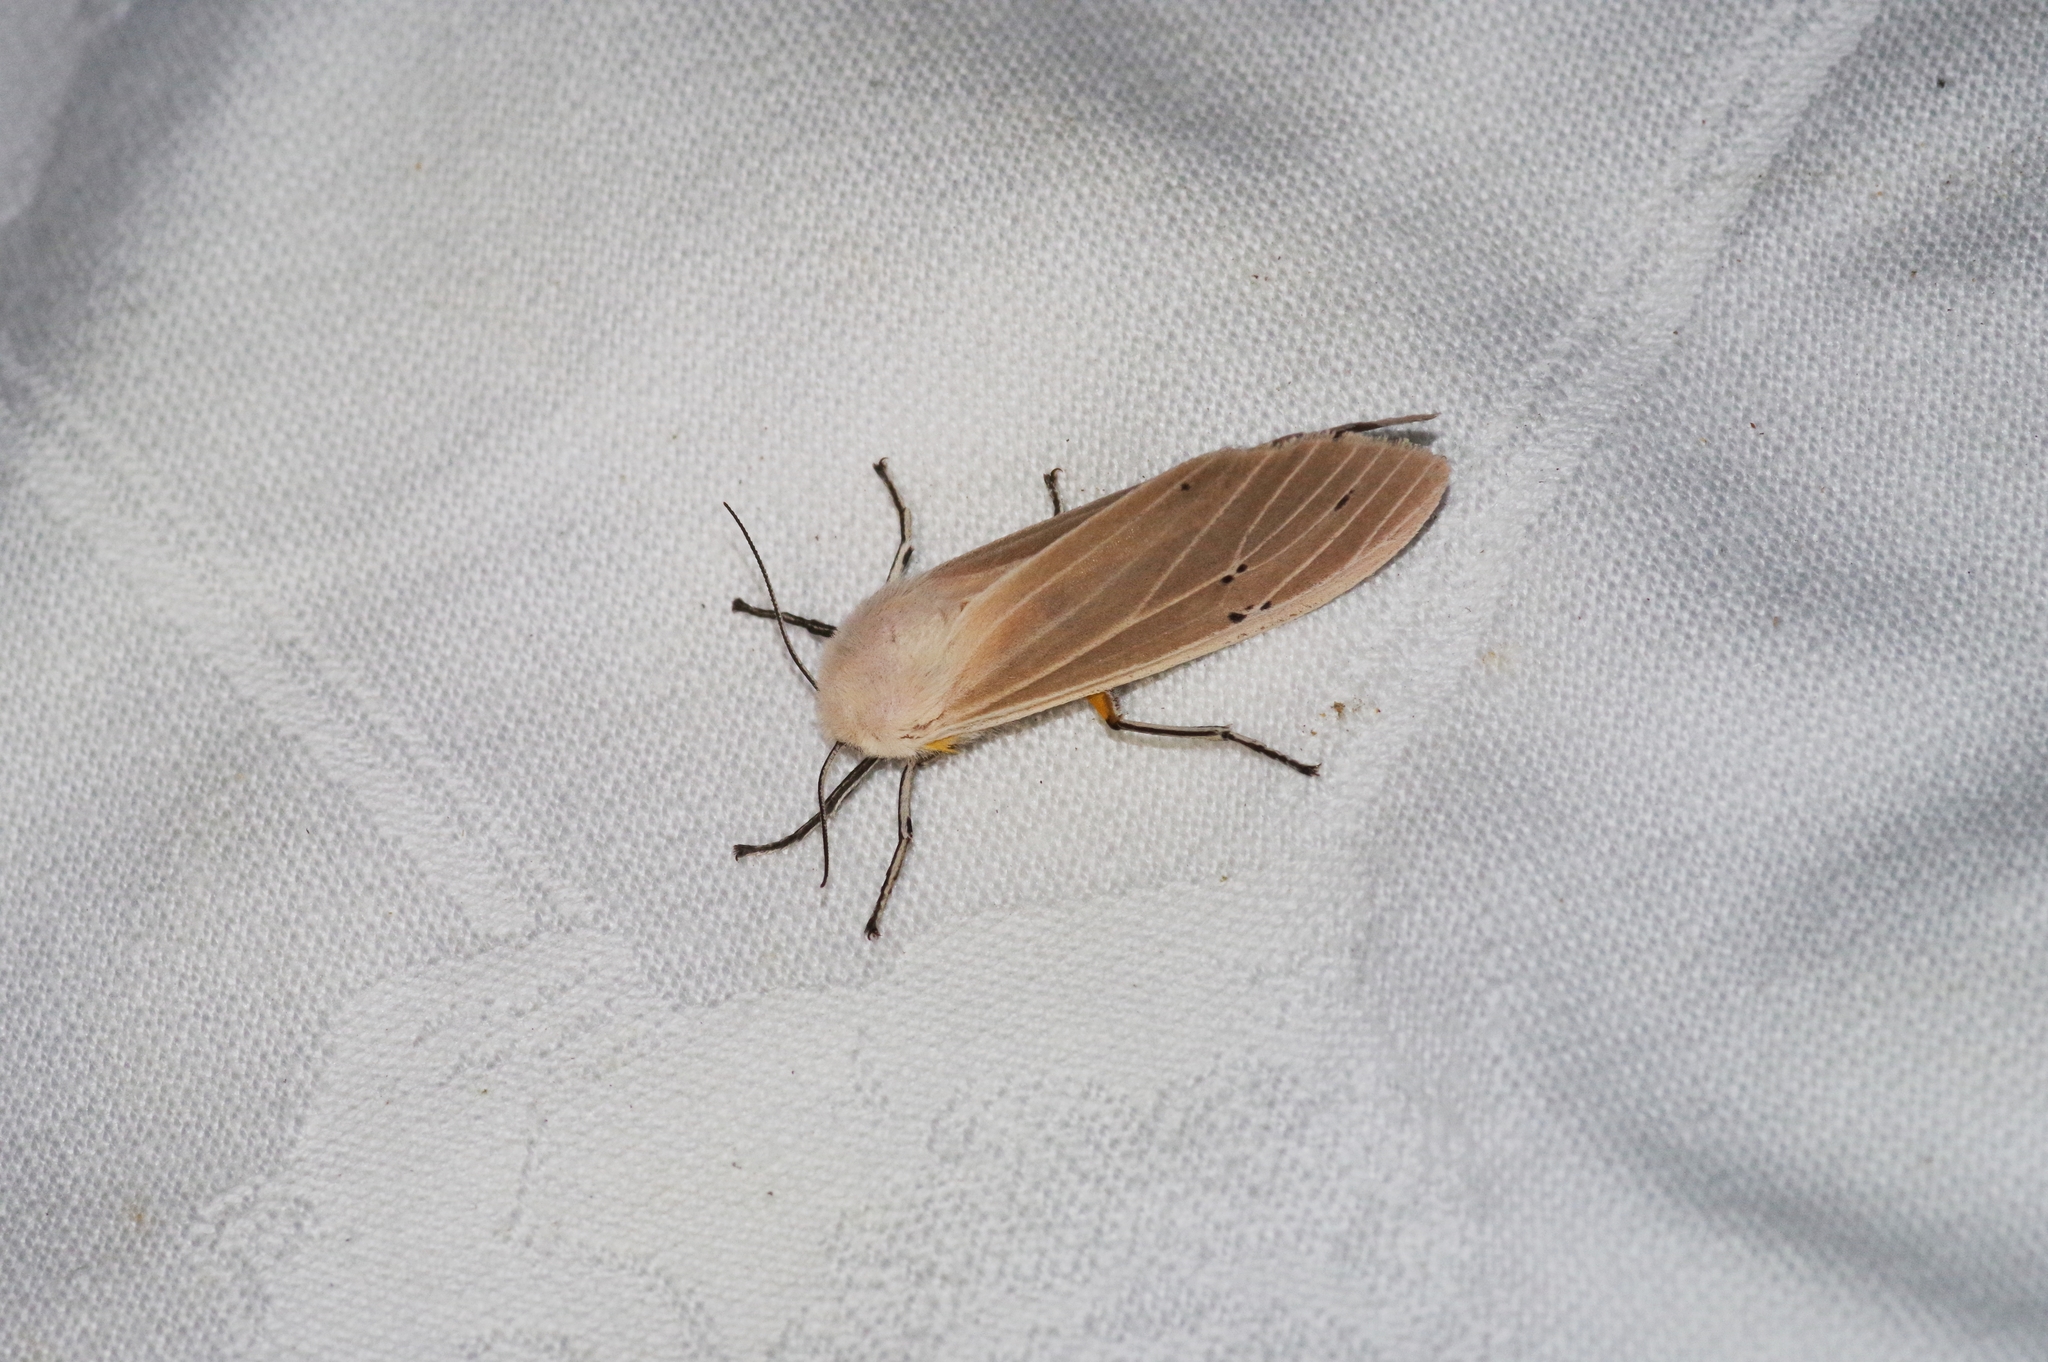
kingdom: Animalia
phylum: Arthropoda
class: Insecta
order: Lepidoptera
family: Erebidae
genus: Creatonotos
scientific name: Creatonotos transiens
